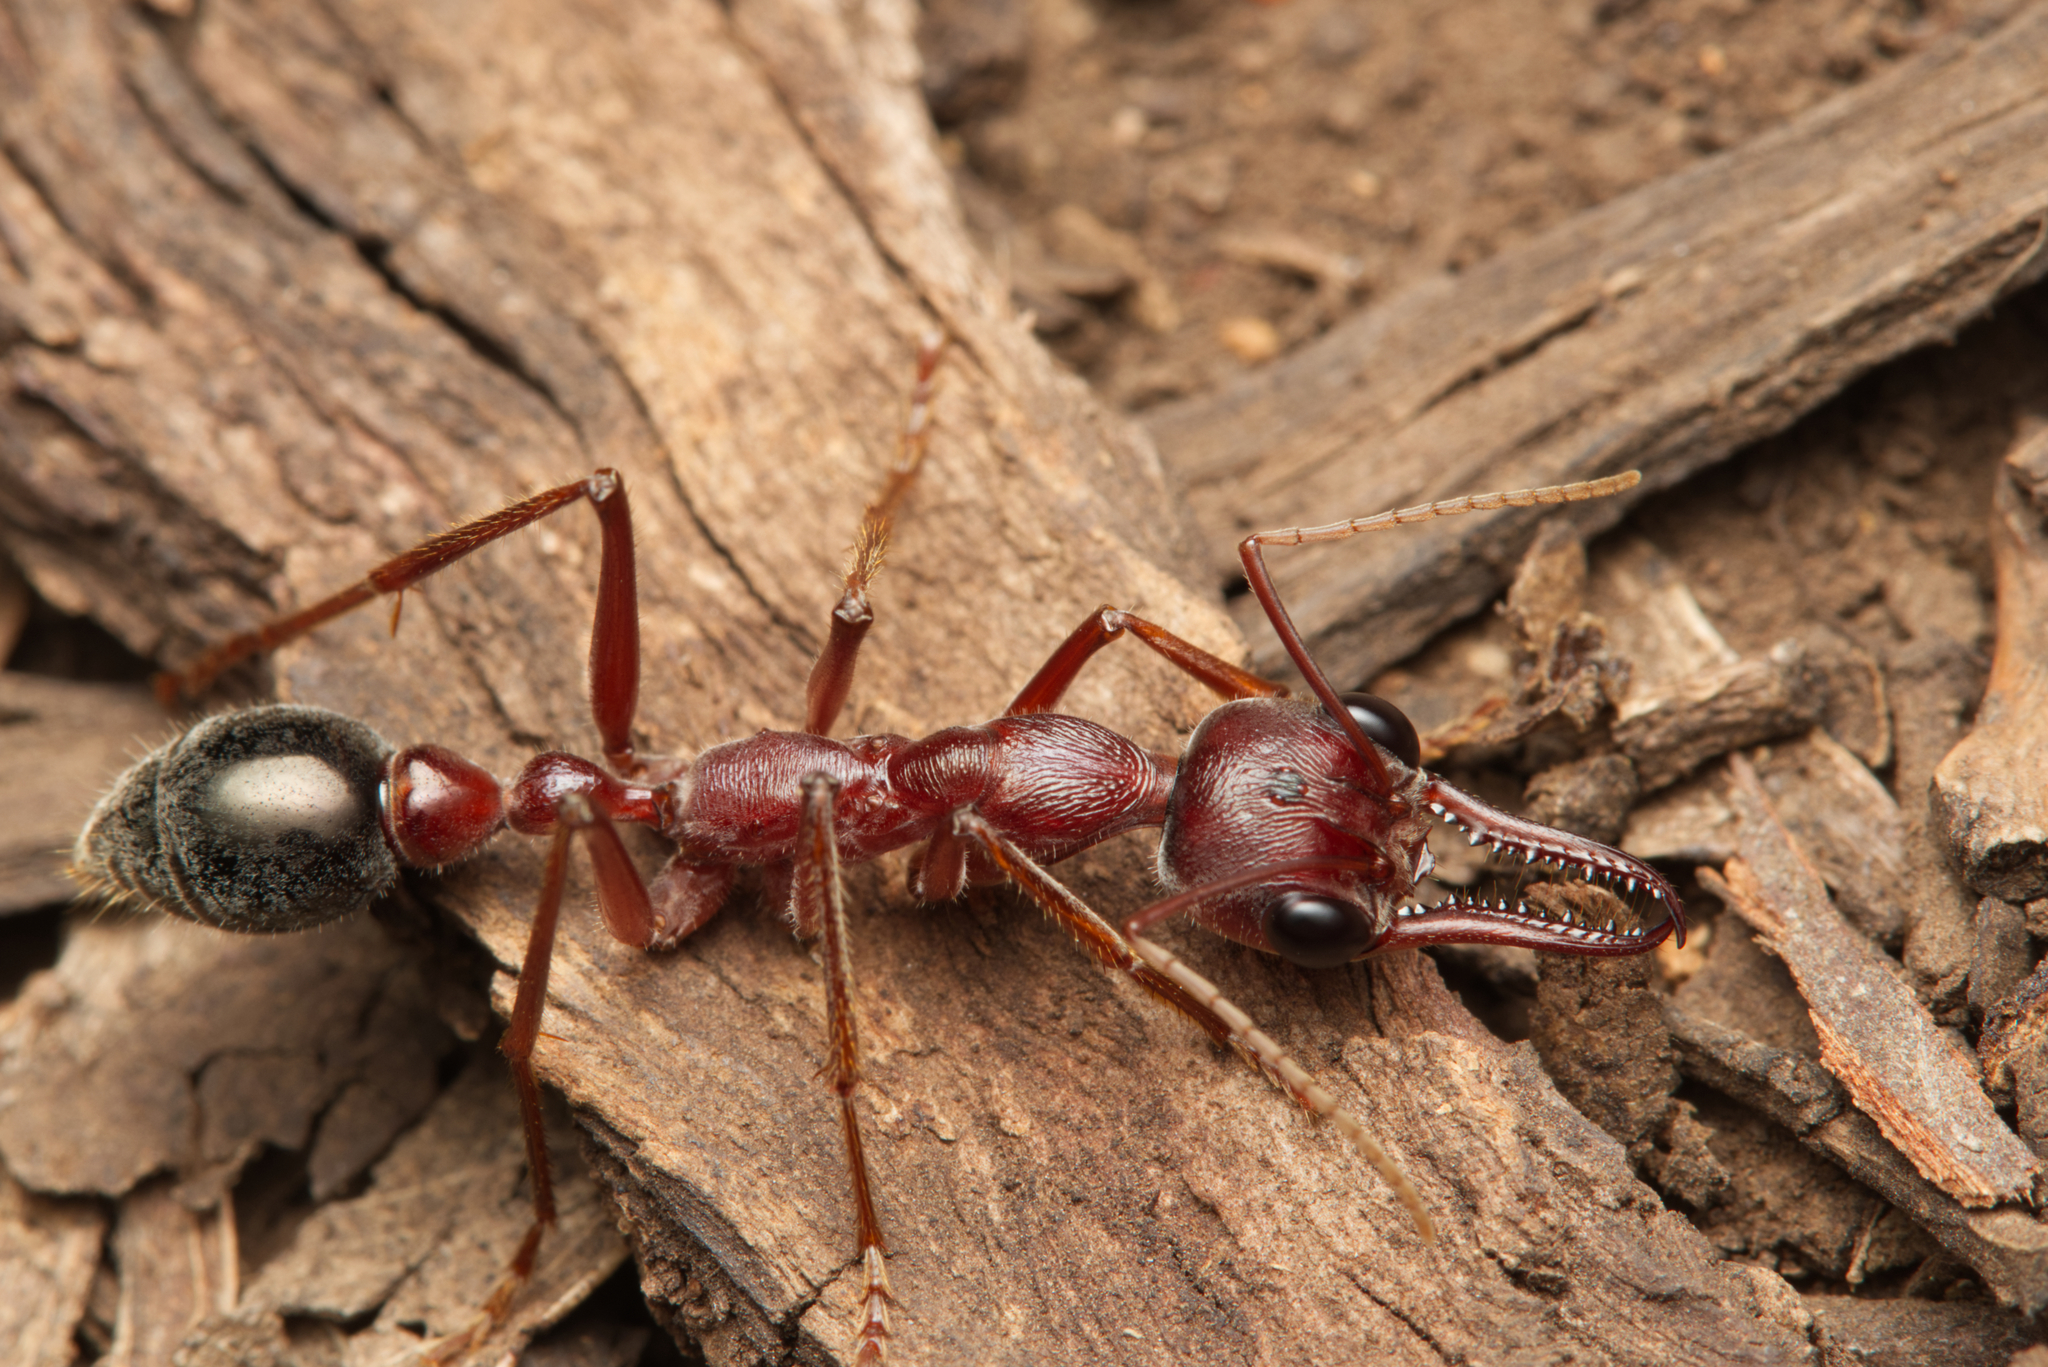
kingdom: Animalia
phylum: Arthropoda
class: Insecta
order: Hymenoptera
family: Formicidae
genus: Myrmecia
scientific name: Myrmecia brevinoda
